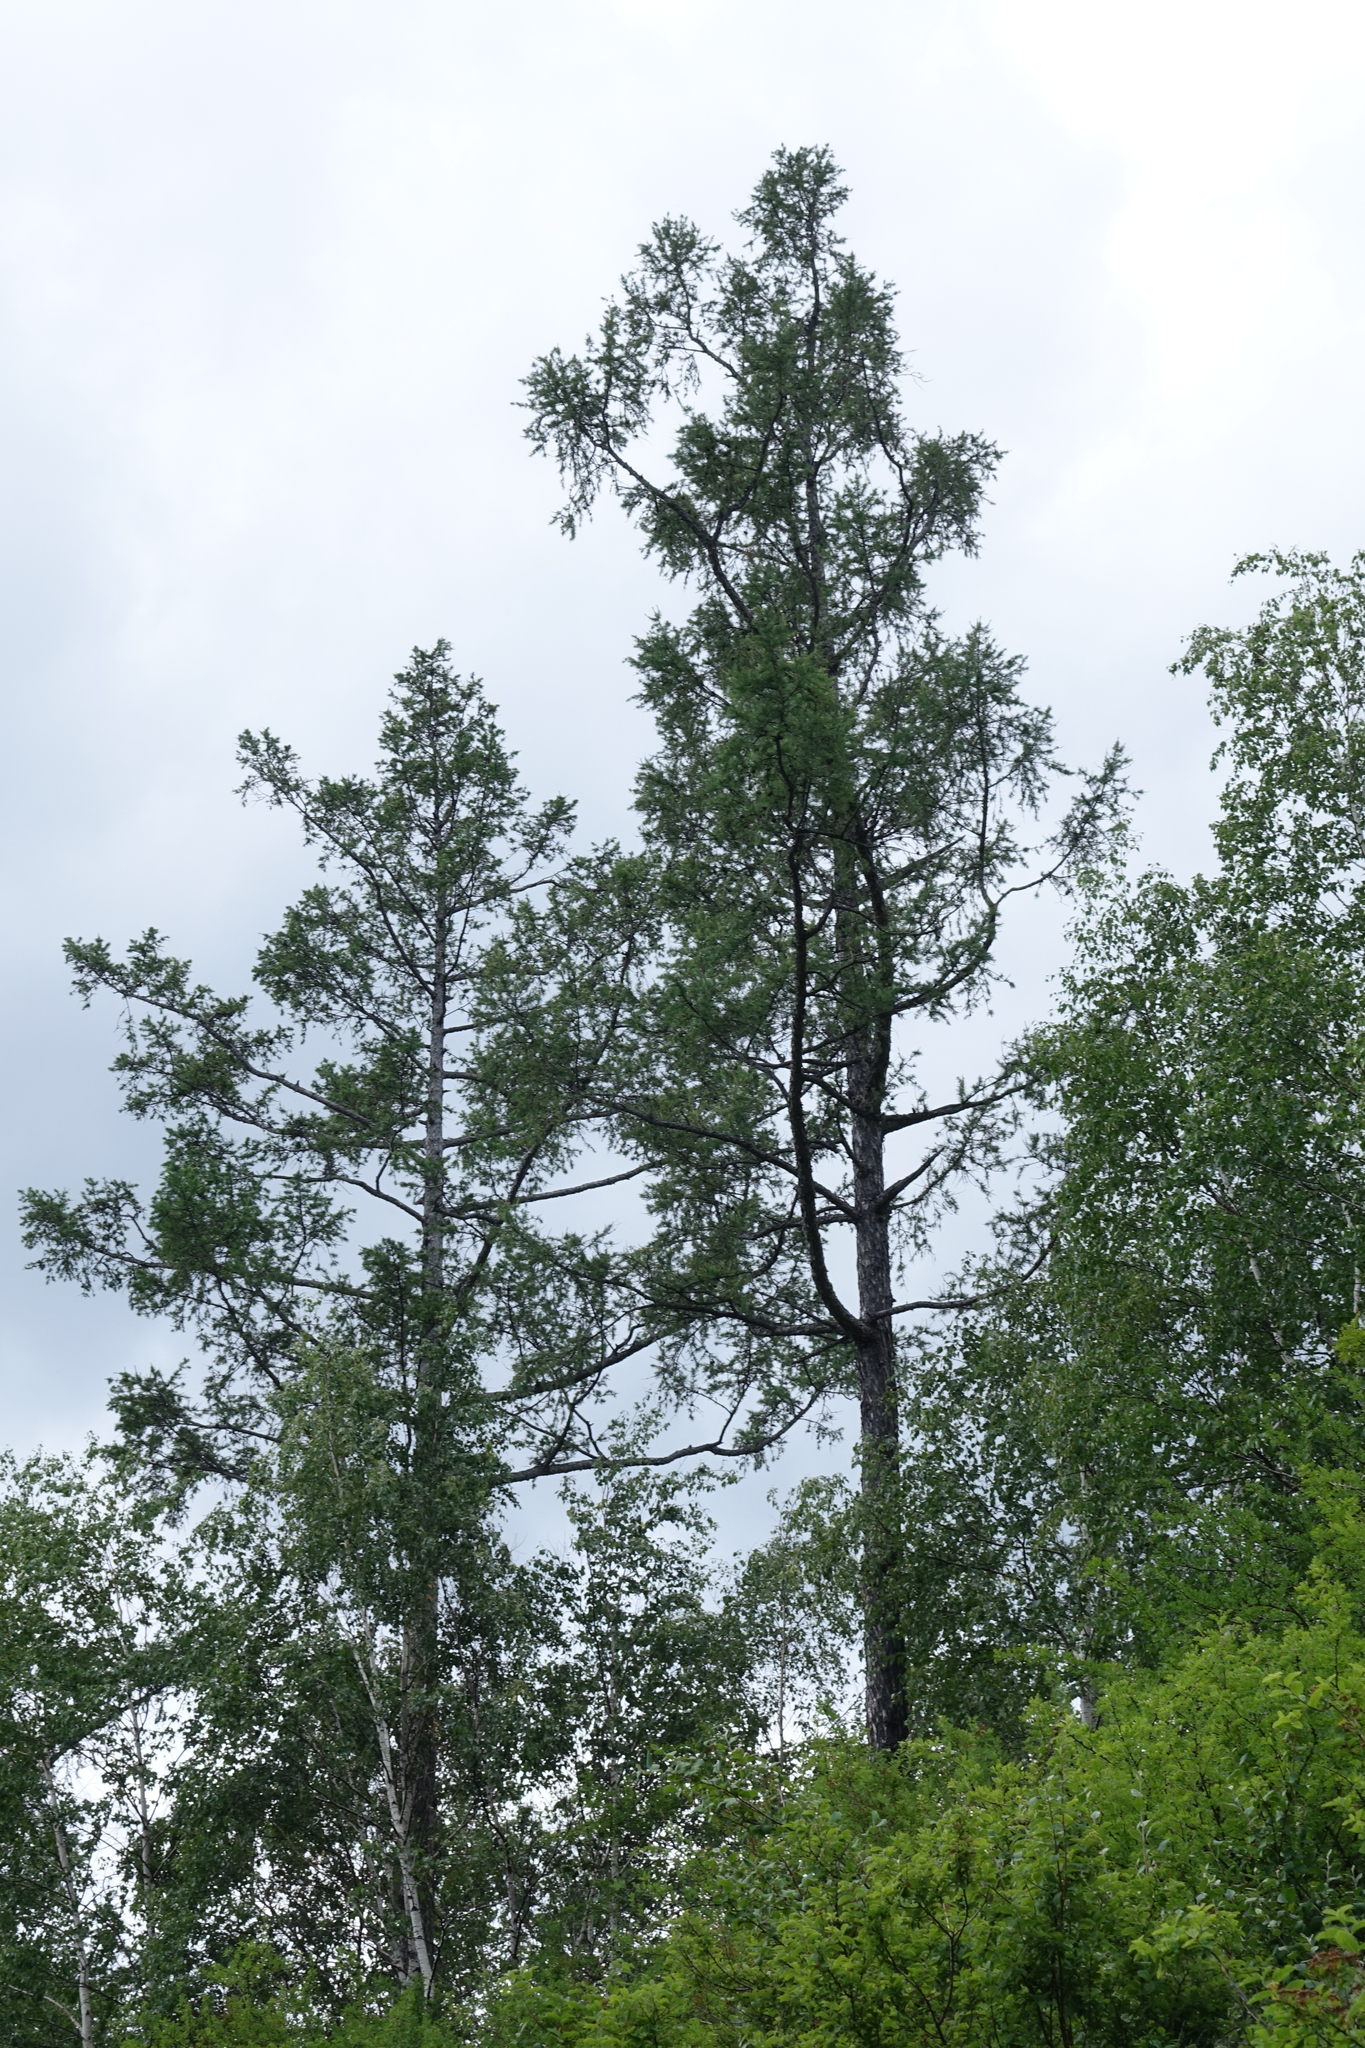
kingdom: Plantae
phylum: Tracheophyta
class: Pinopsida
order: Pinales
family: Pinaceae
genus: Larix
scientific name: Larix sibirica
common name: Siberian larch
